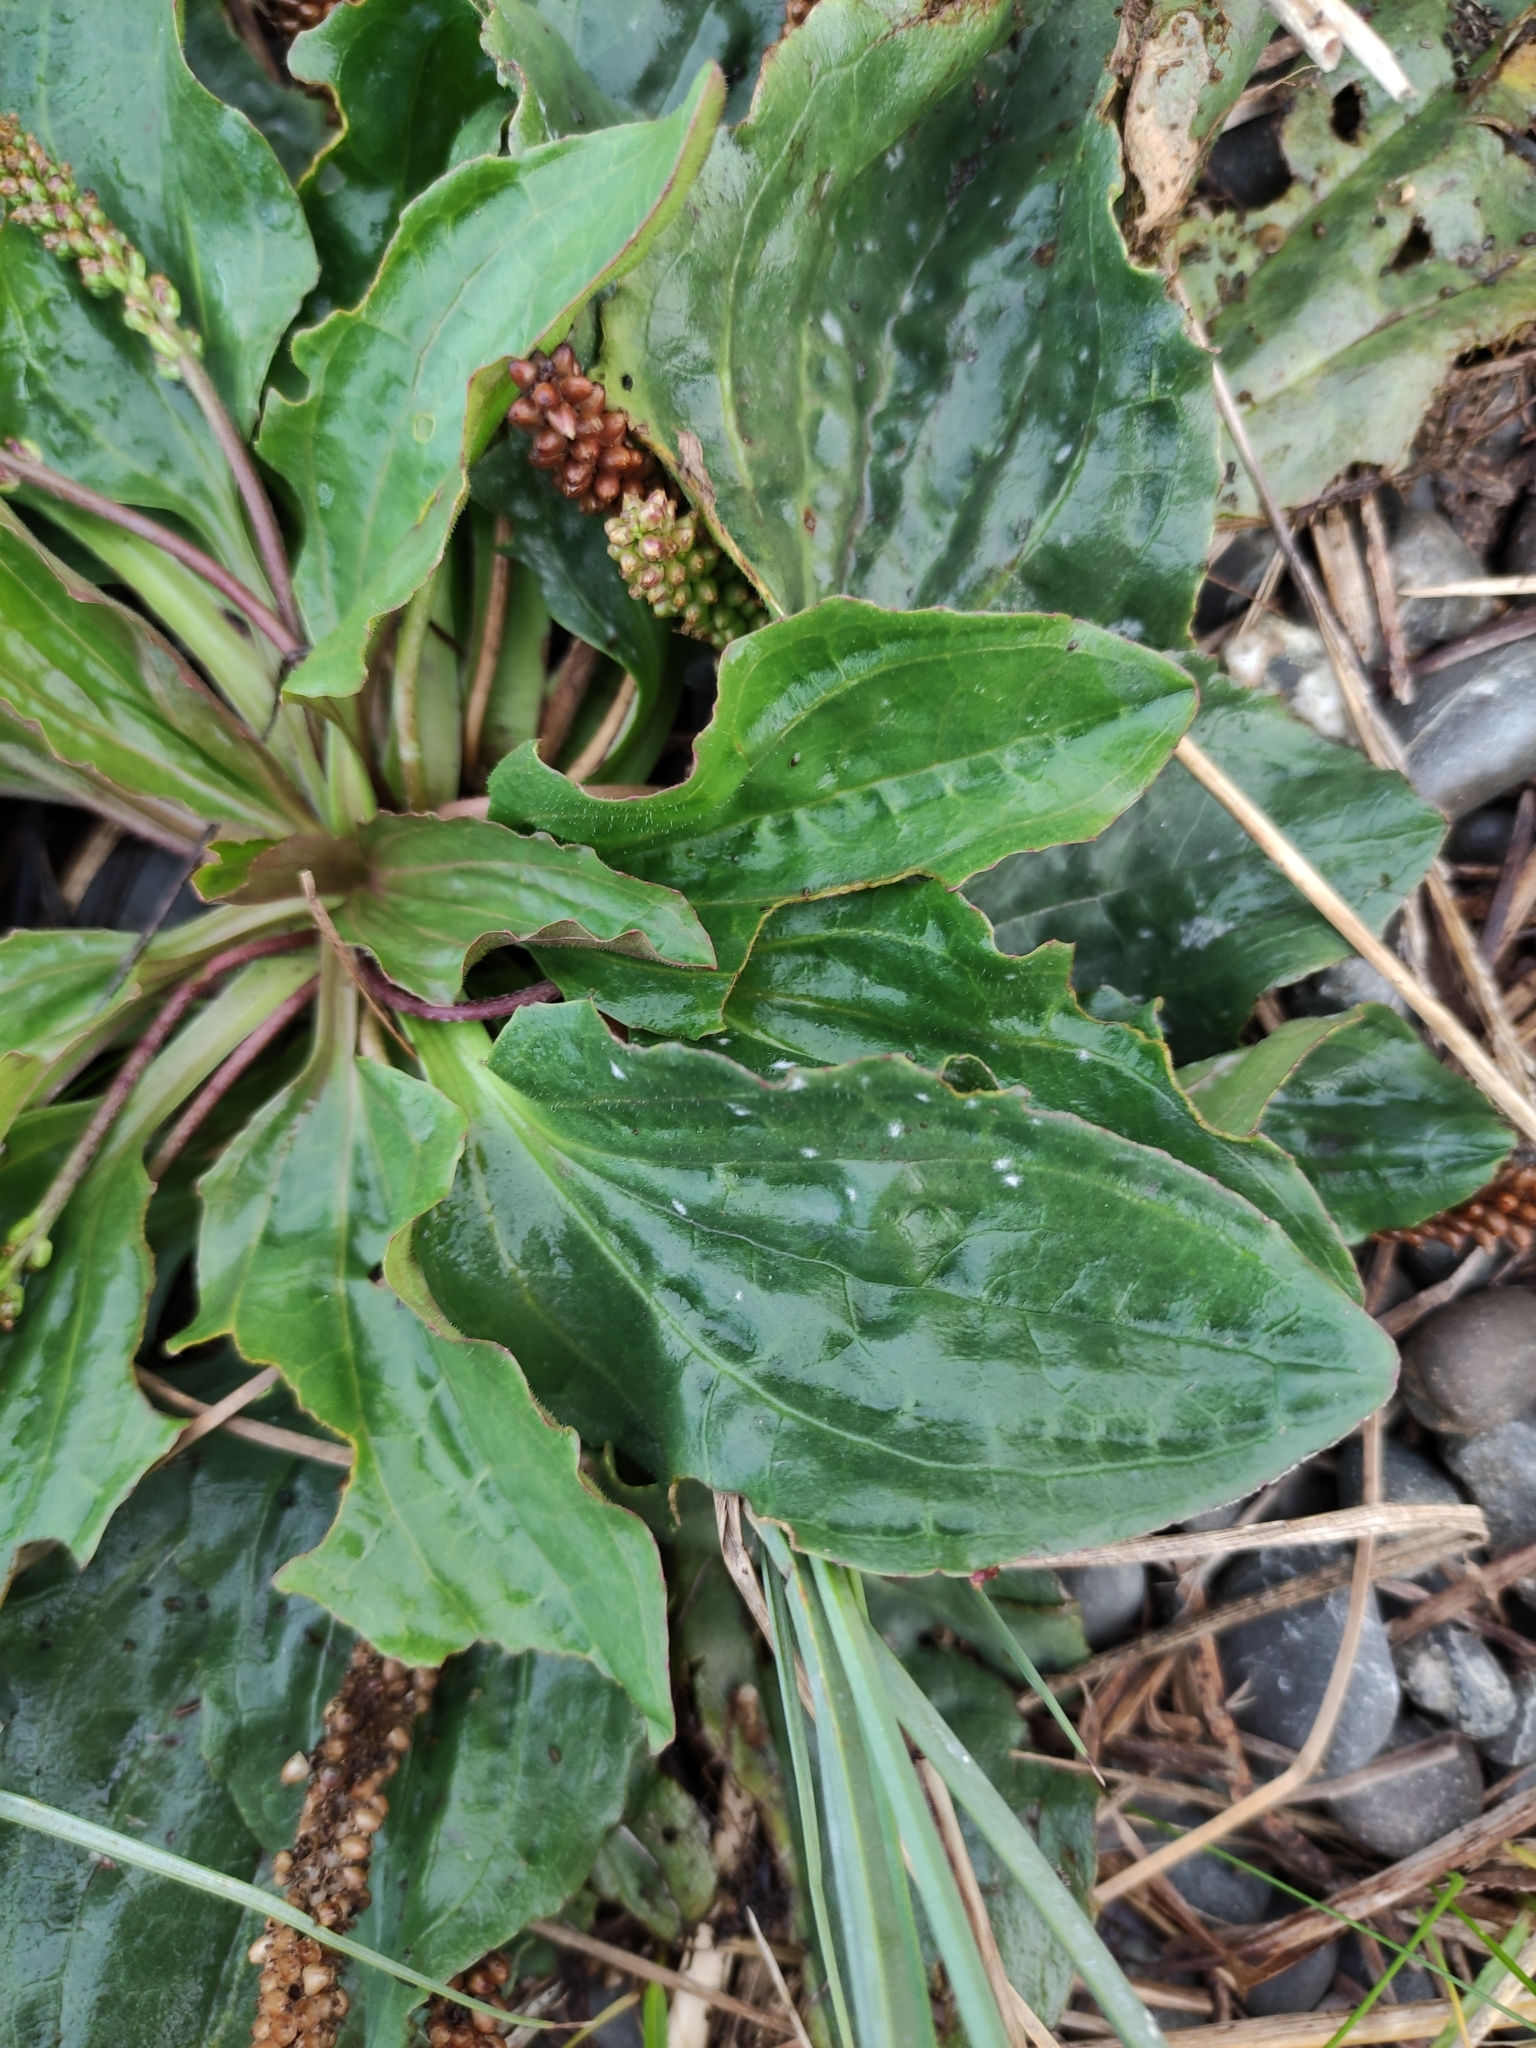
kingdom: Plantae
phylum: Tracheophyta
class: Magnoliopsida
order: Lamiales
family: Plantaginaceae
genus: Plantago
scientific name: Plantago major
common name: Common plantain
